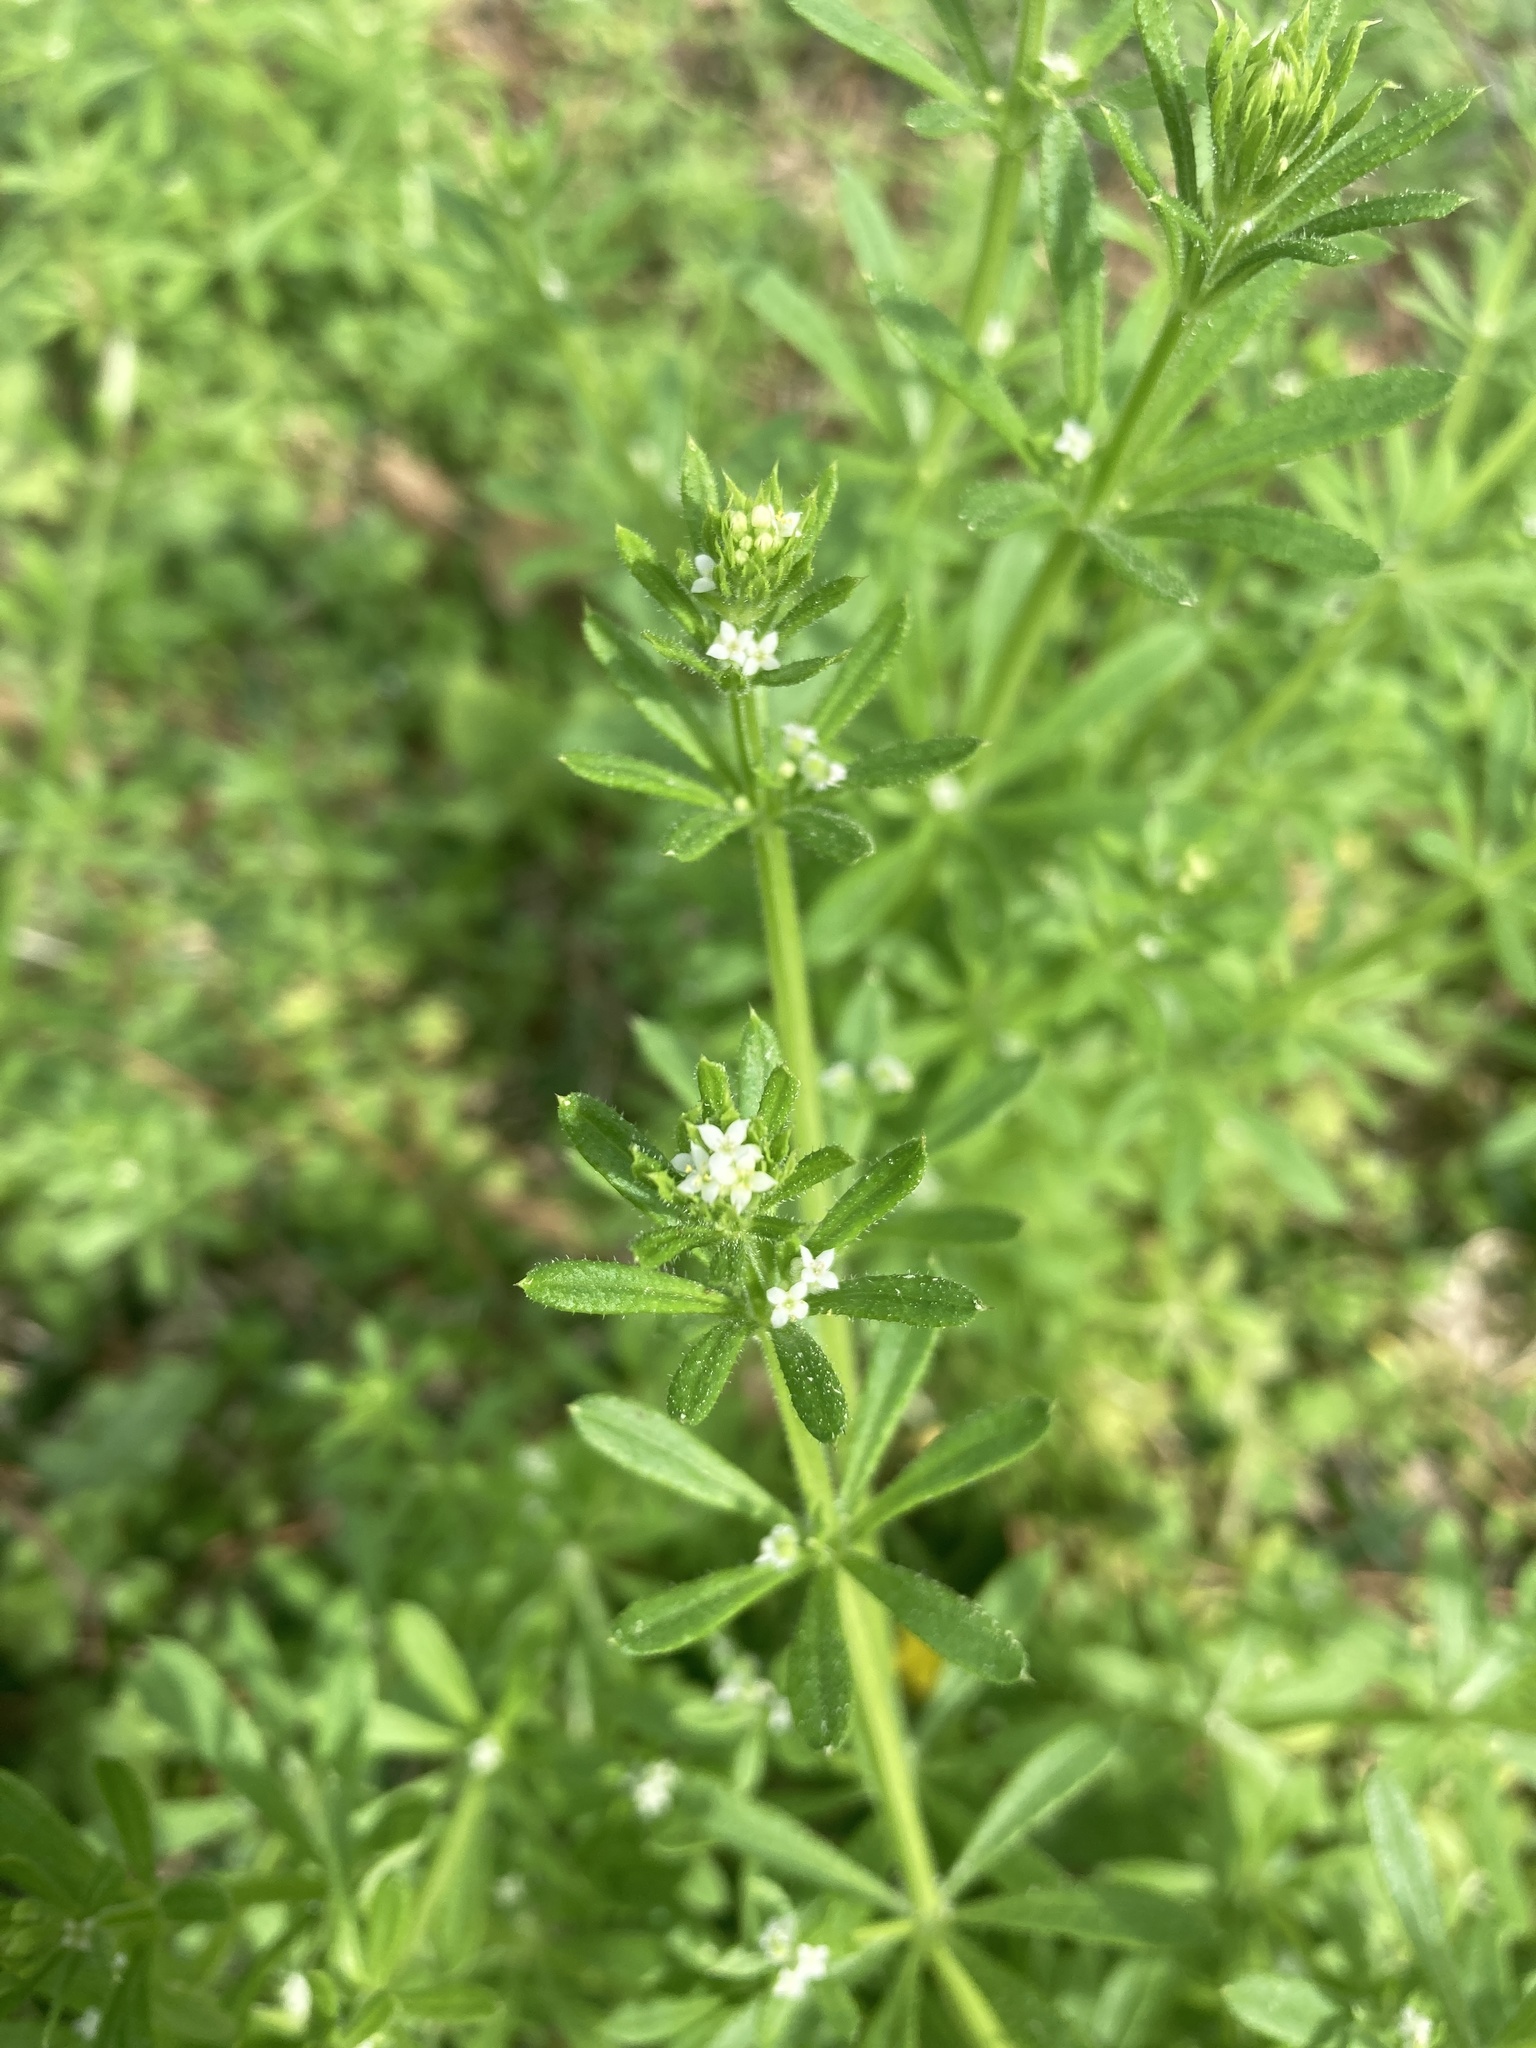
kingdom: Plantae
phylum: Tracheophyta
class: Magnoliopsida
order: Gentianales
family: Rubiaceae
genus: Galium
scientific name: Galium aparine
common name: Cleavers
